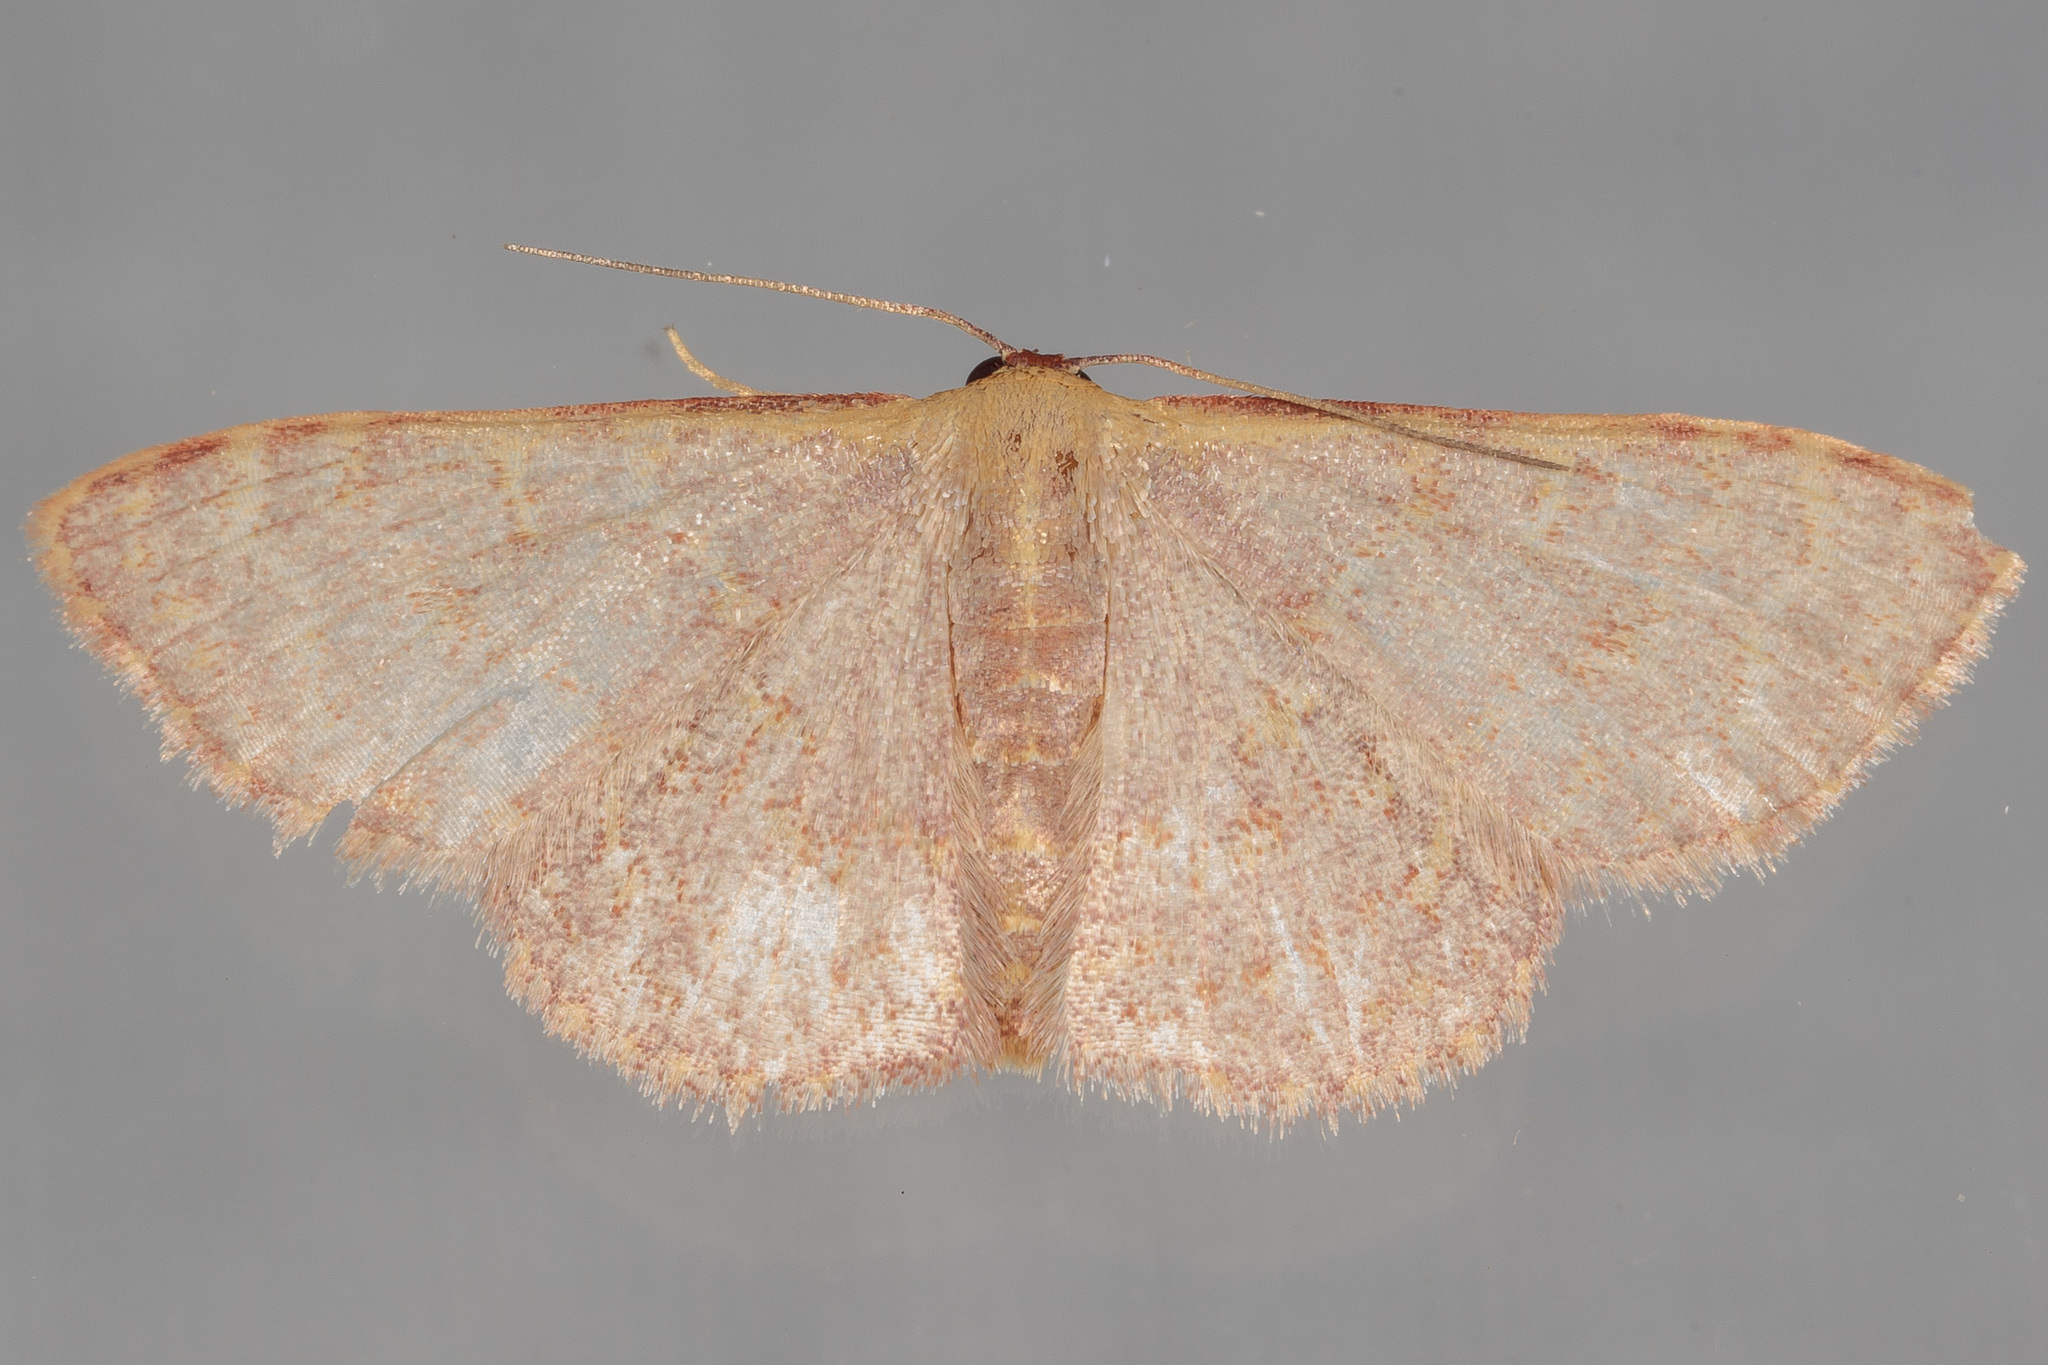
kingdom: Animalia
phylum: Arthropoda
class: Insecta
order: Lepidoptera
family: Geometridae
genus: Leptostales
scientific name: Leptostales pannaria
